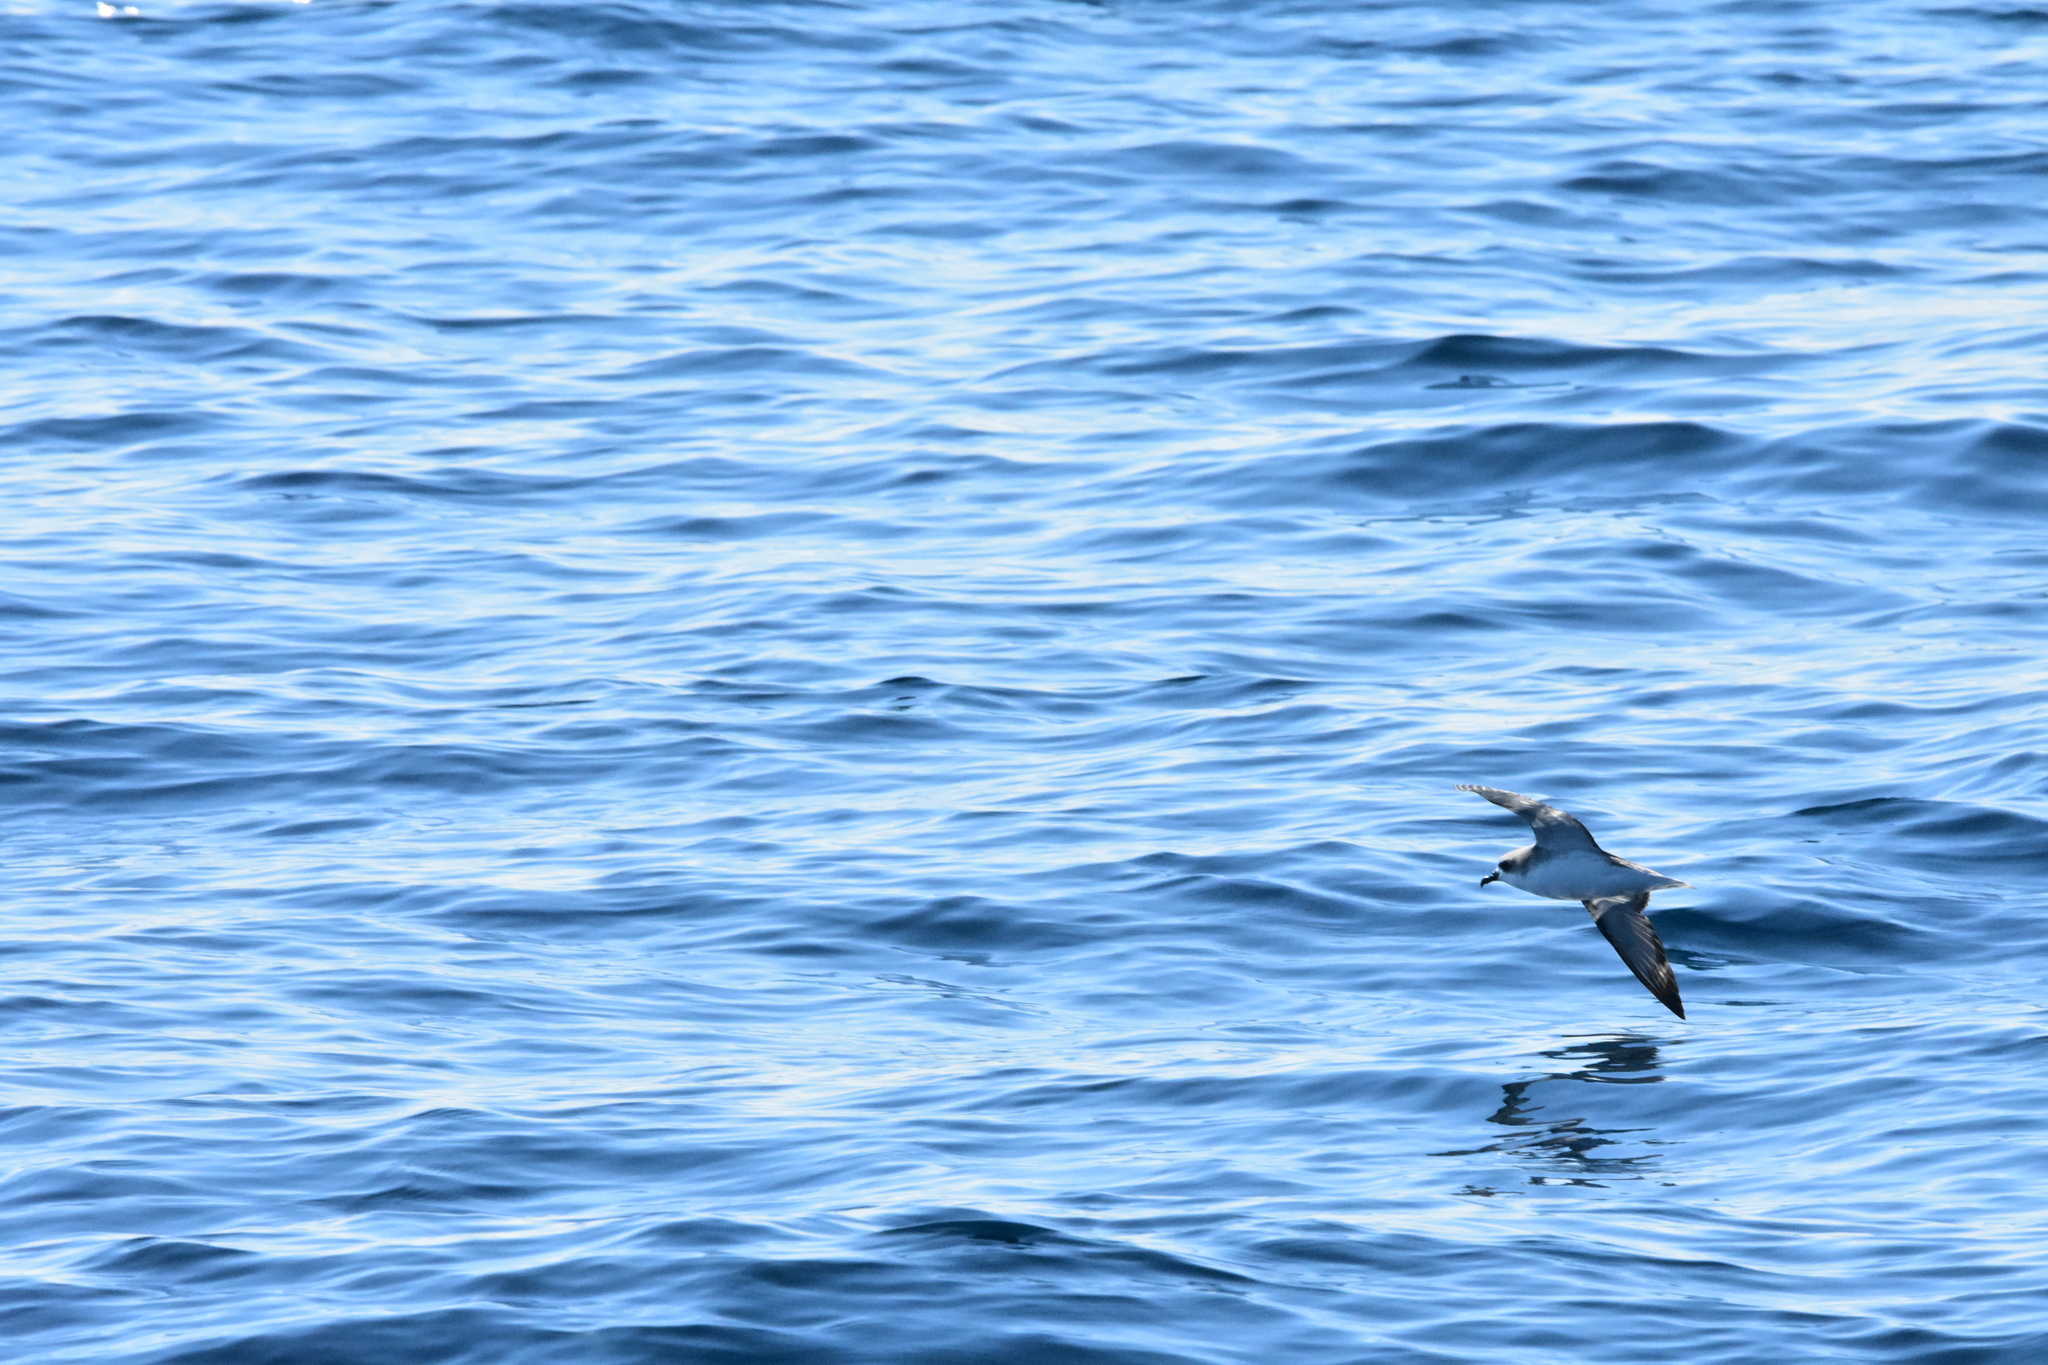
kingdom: Animalia
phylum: Chordata
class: Aves
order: Procellariiformes
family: Procellariidae
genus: Pterodroma
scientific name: Pterodroma cookii
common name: Cook's petrel
